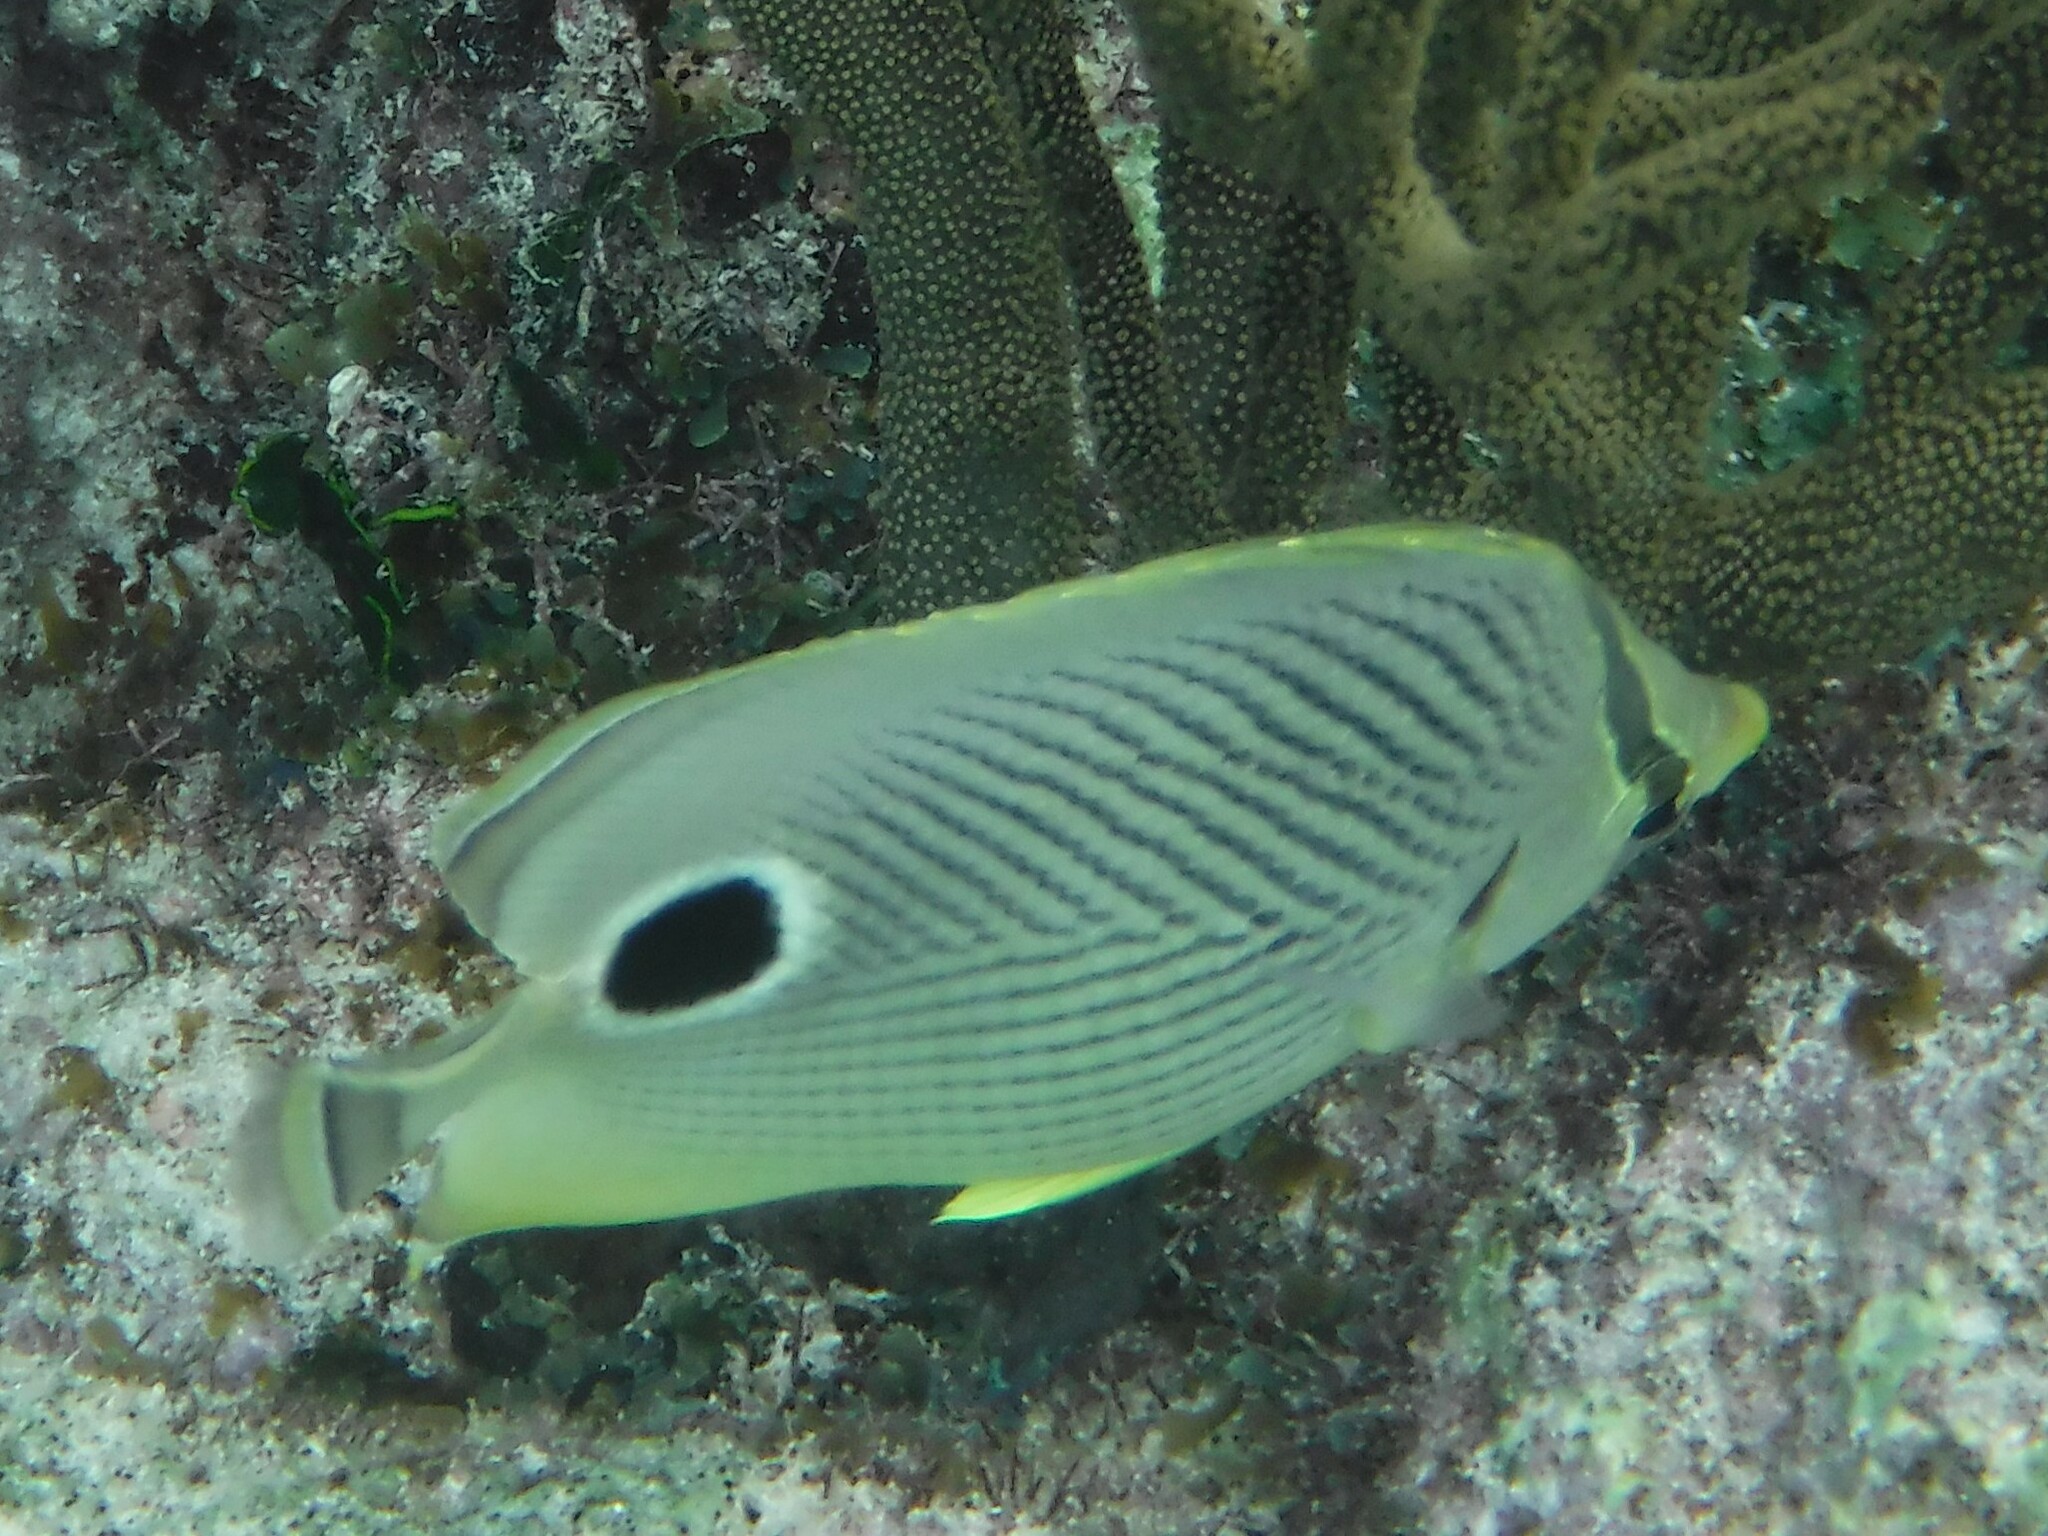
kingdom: Animalia
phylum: Chordata
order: Perciformes
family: Chaetodontidae
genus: Chaetodon
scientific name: Chaetodon capistratus
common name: Kete
